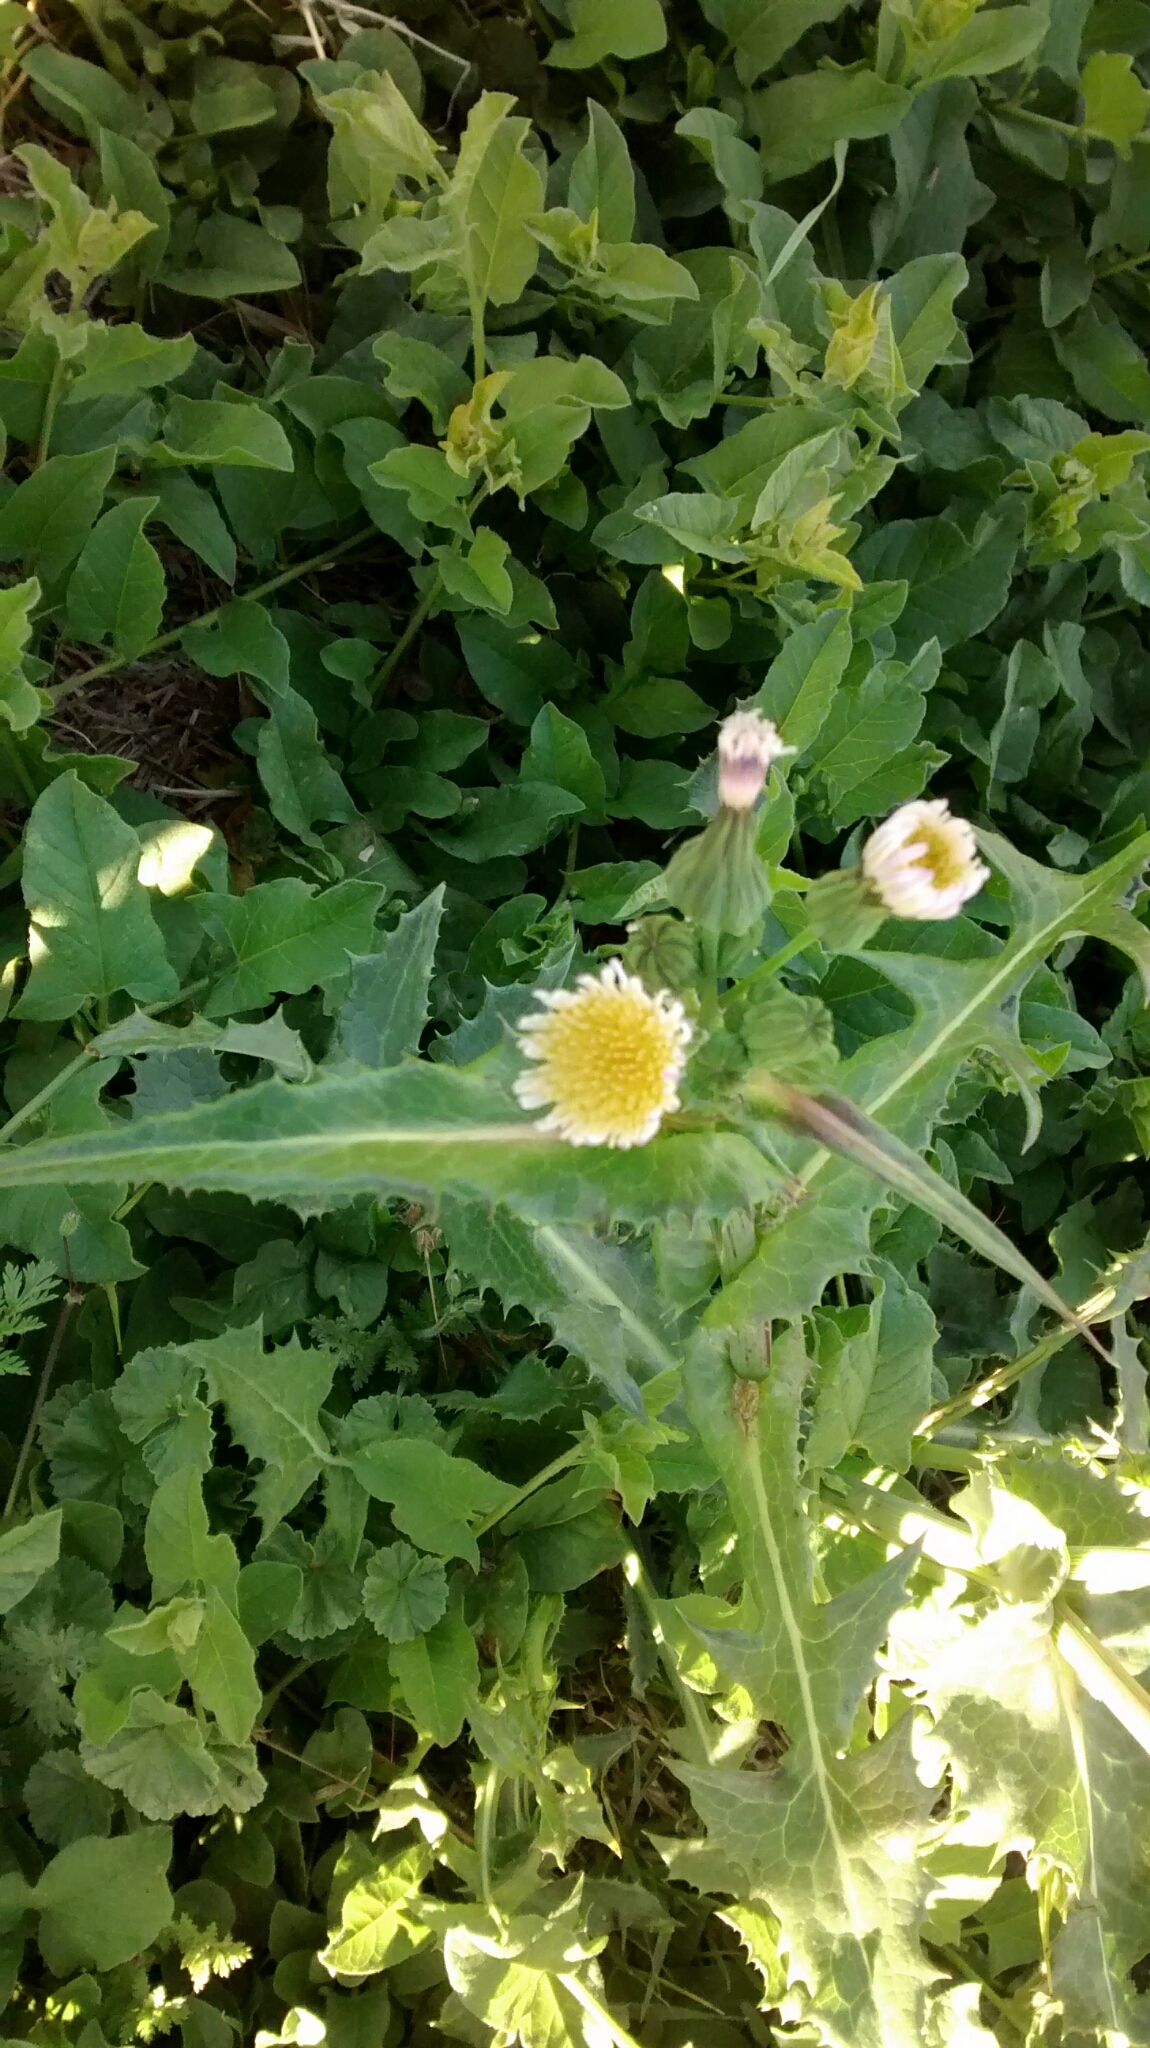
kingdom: Plantae
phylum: Tracheophyta
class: Magnoliopsida
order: Asterales
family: Asteraceae
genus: Sonchus
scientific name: Sonchus oleraceus
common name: Common sowthistle
